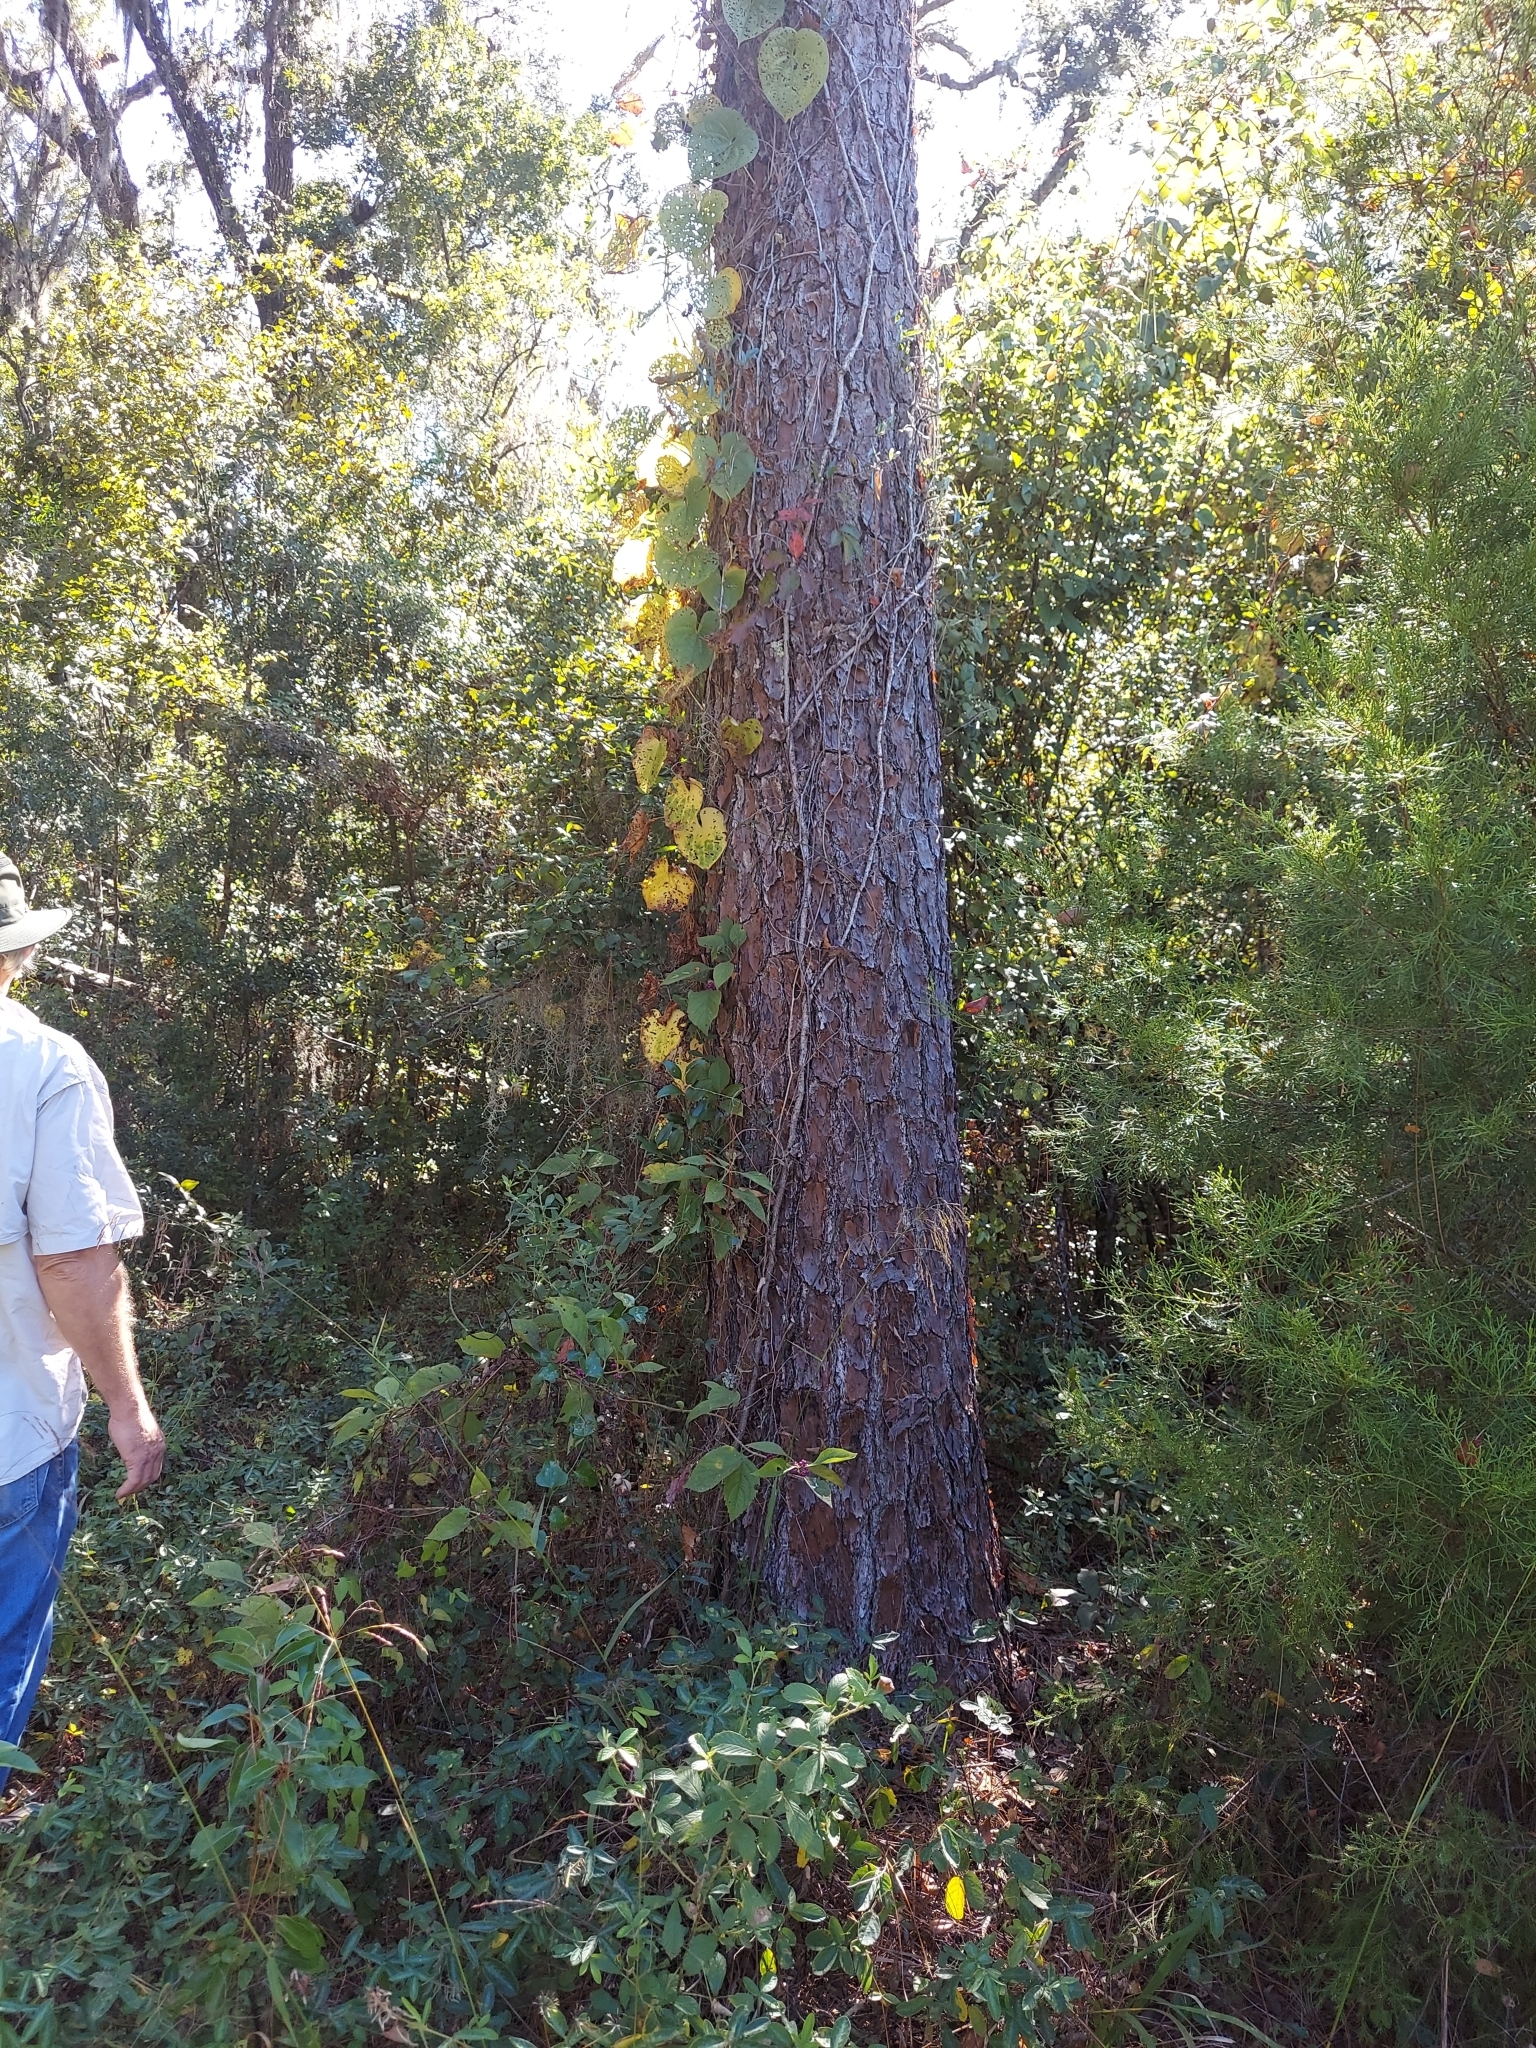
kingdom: Plantae
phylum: Tracheophyta
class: Liliopsida
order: Dioscoreales
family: Dioscoreaceae
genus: Dioscorea
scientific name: Dioscorea bulbifera
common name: Air yam
